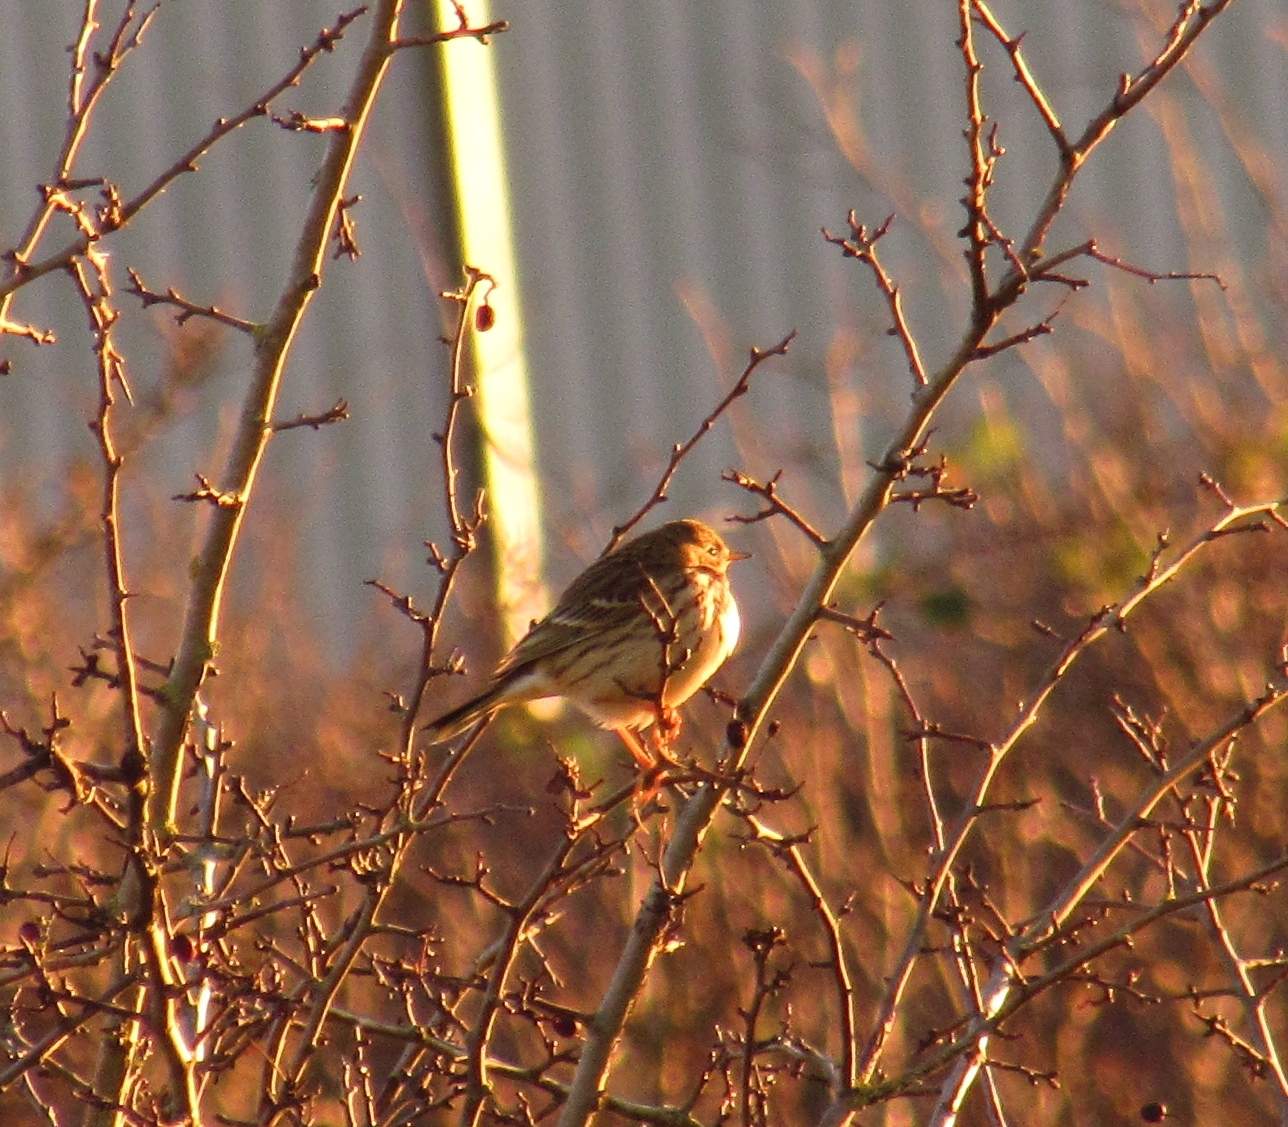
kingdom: Animalia
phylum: Chordata
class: Aves
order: Passeriformes
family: Motacillidae
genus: Anthus
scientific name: Anthus pratensis
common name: Meadow pipit
